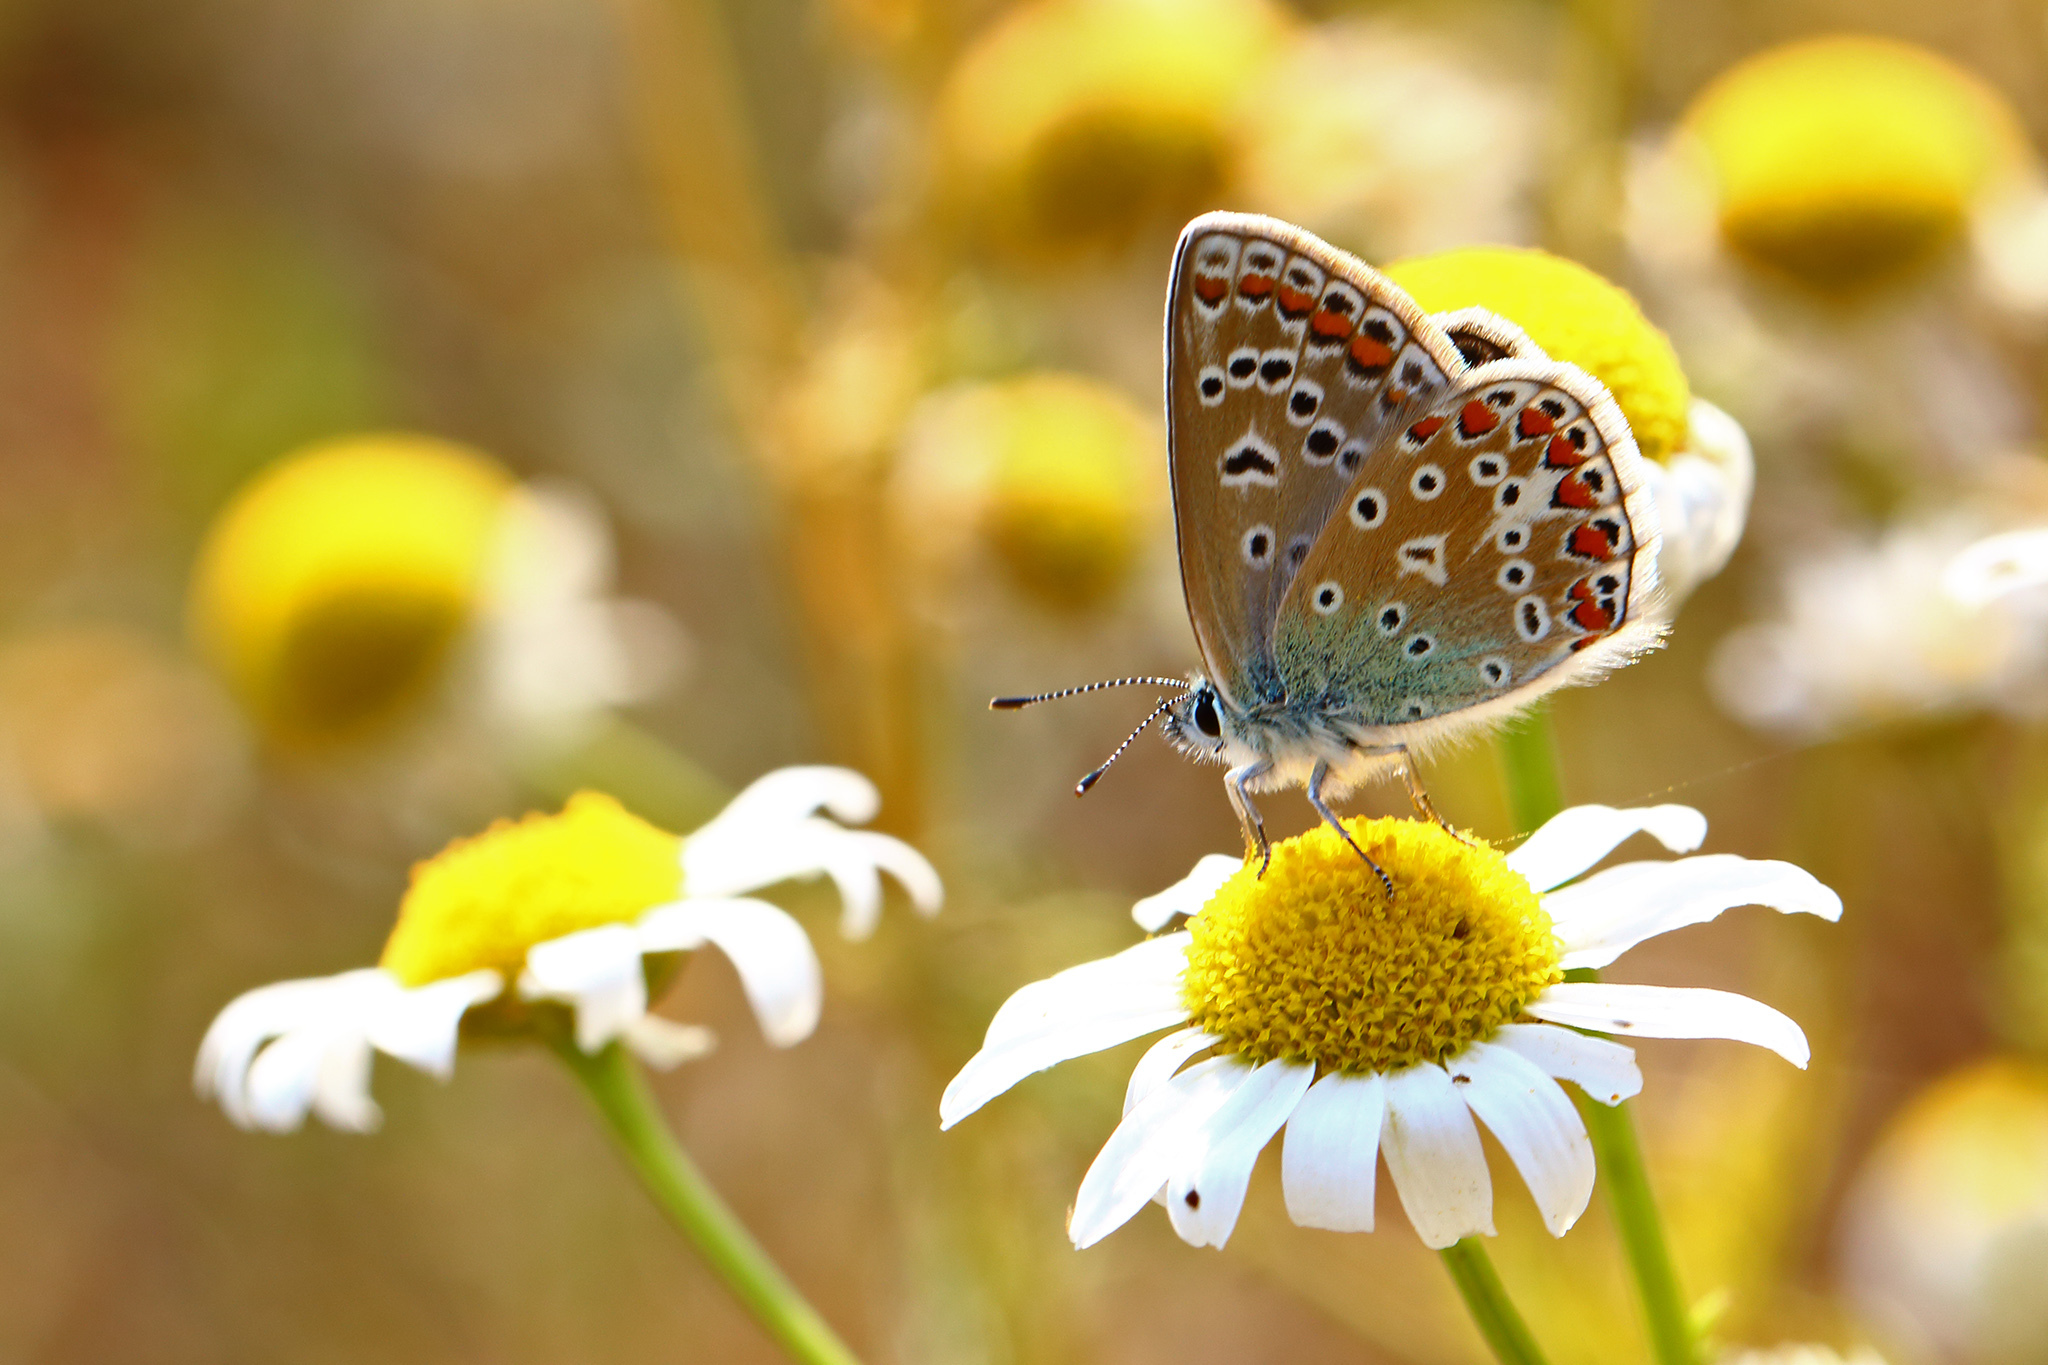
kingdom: Animalia
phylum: Arthropoda
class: Insecta
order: Lepidoptera
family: Lycaenidae
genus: Polyommatus
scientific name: Polyommatus icarus
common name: Common blue
